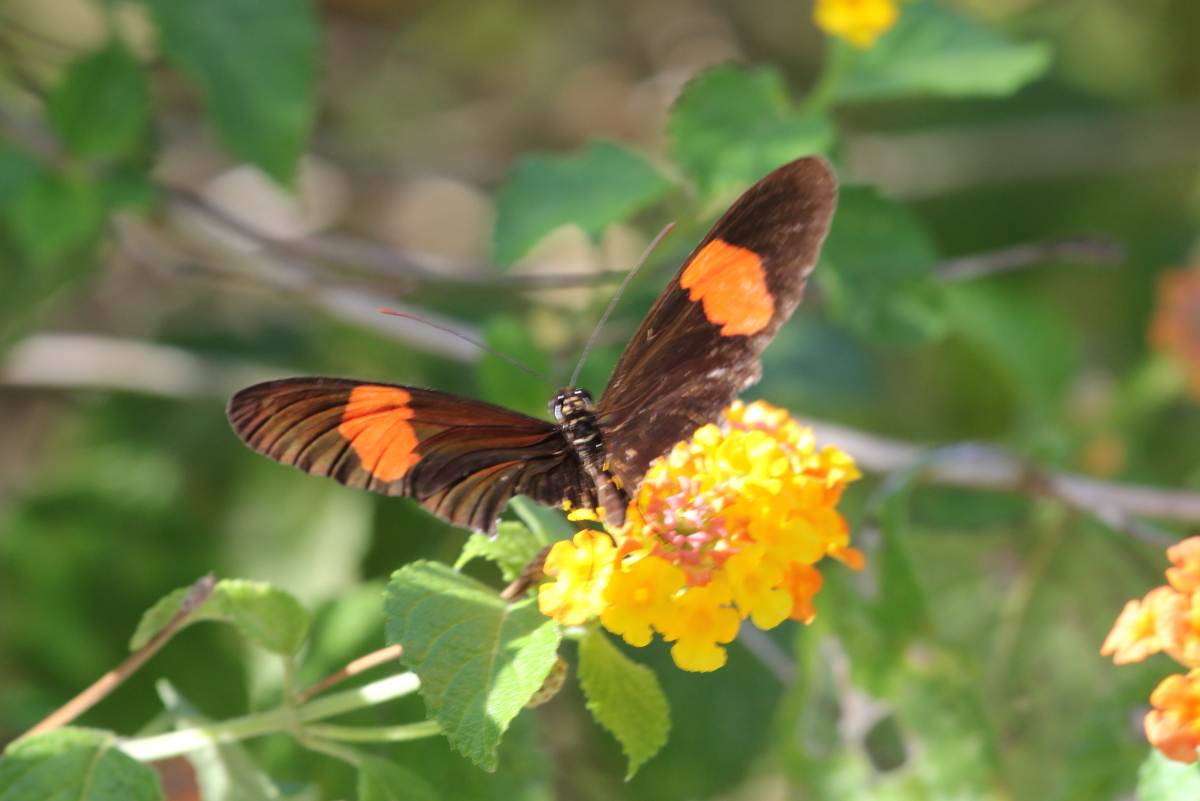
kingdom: Animalia
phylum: Arthropoda
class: Insecta
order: Lepidoptera
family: Nymphalidae
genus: Heliconius
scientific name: Heliconius erato
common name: Common patch longwing
